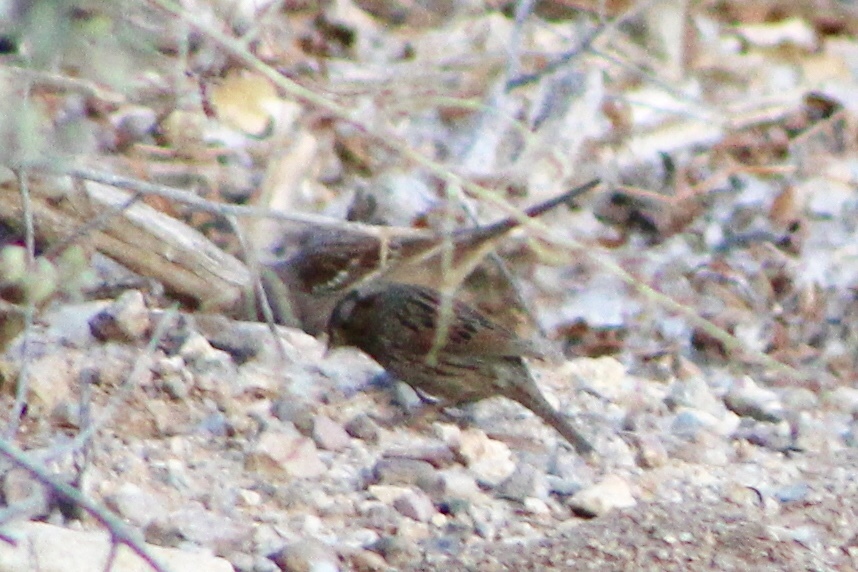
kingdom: Animalia
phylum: Chordata
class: Aves
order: Passeriformes
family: Passerellidae
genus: Melospiza
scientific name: Melospiza lincolnii
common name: Lincoln's sparrow
